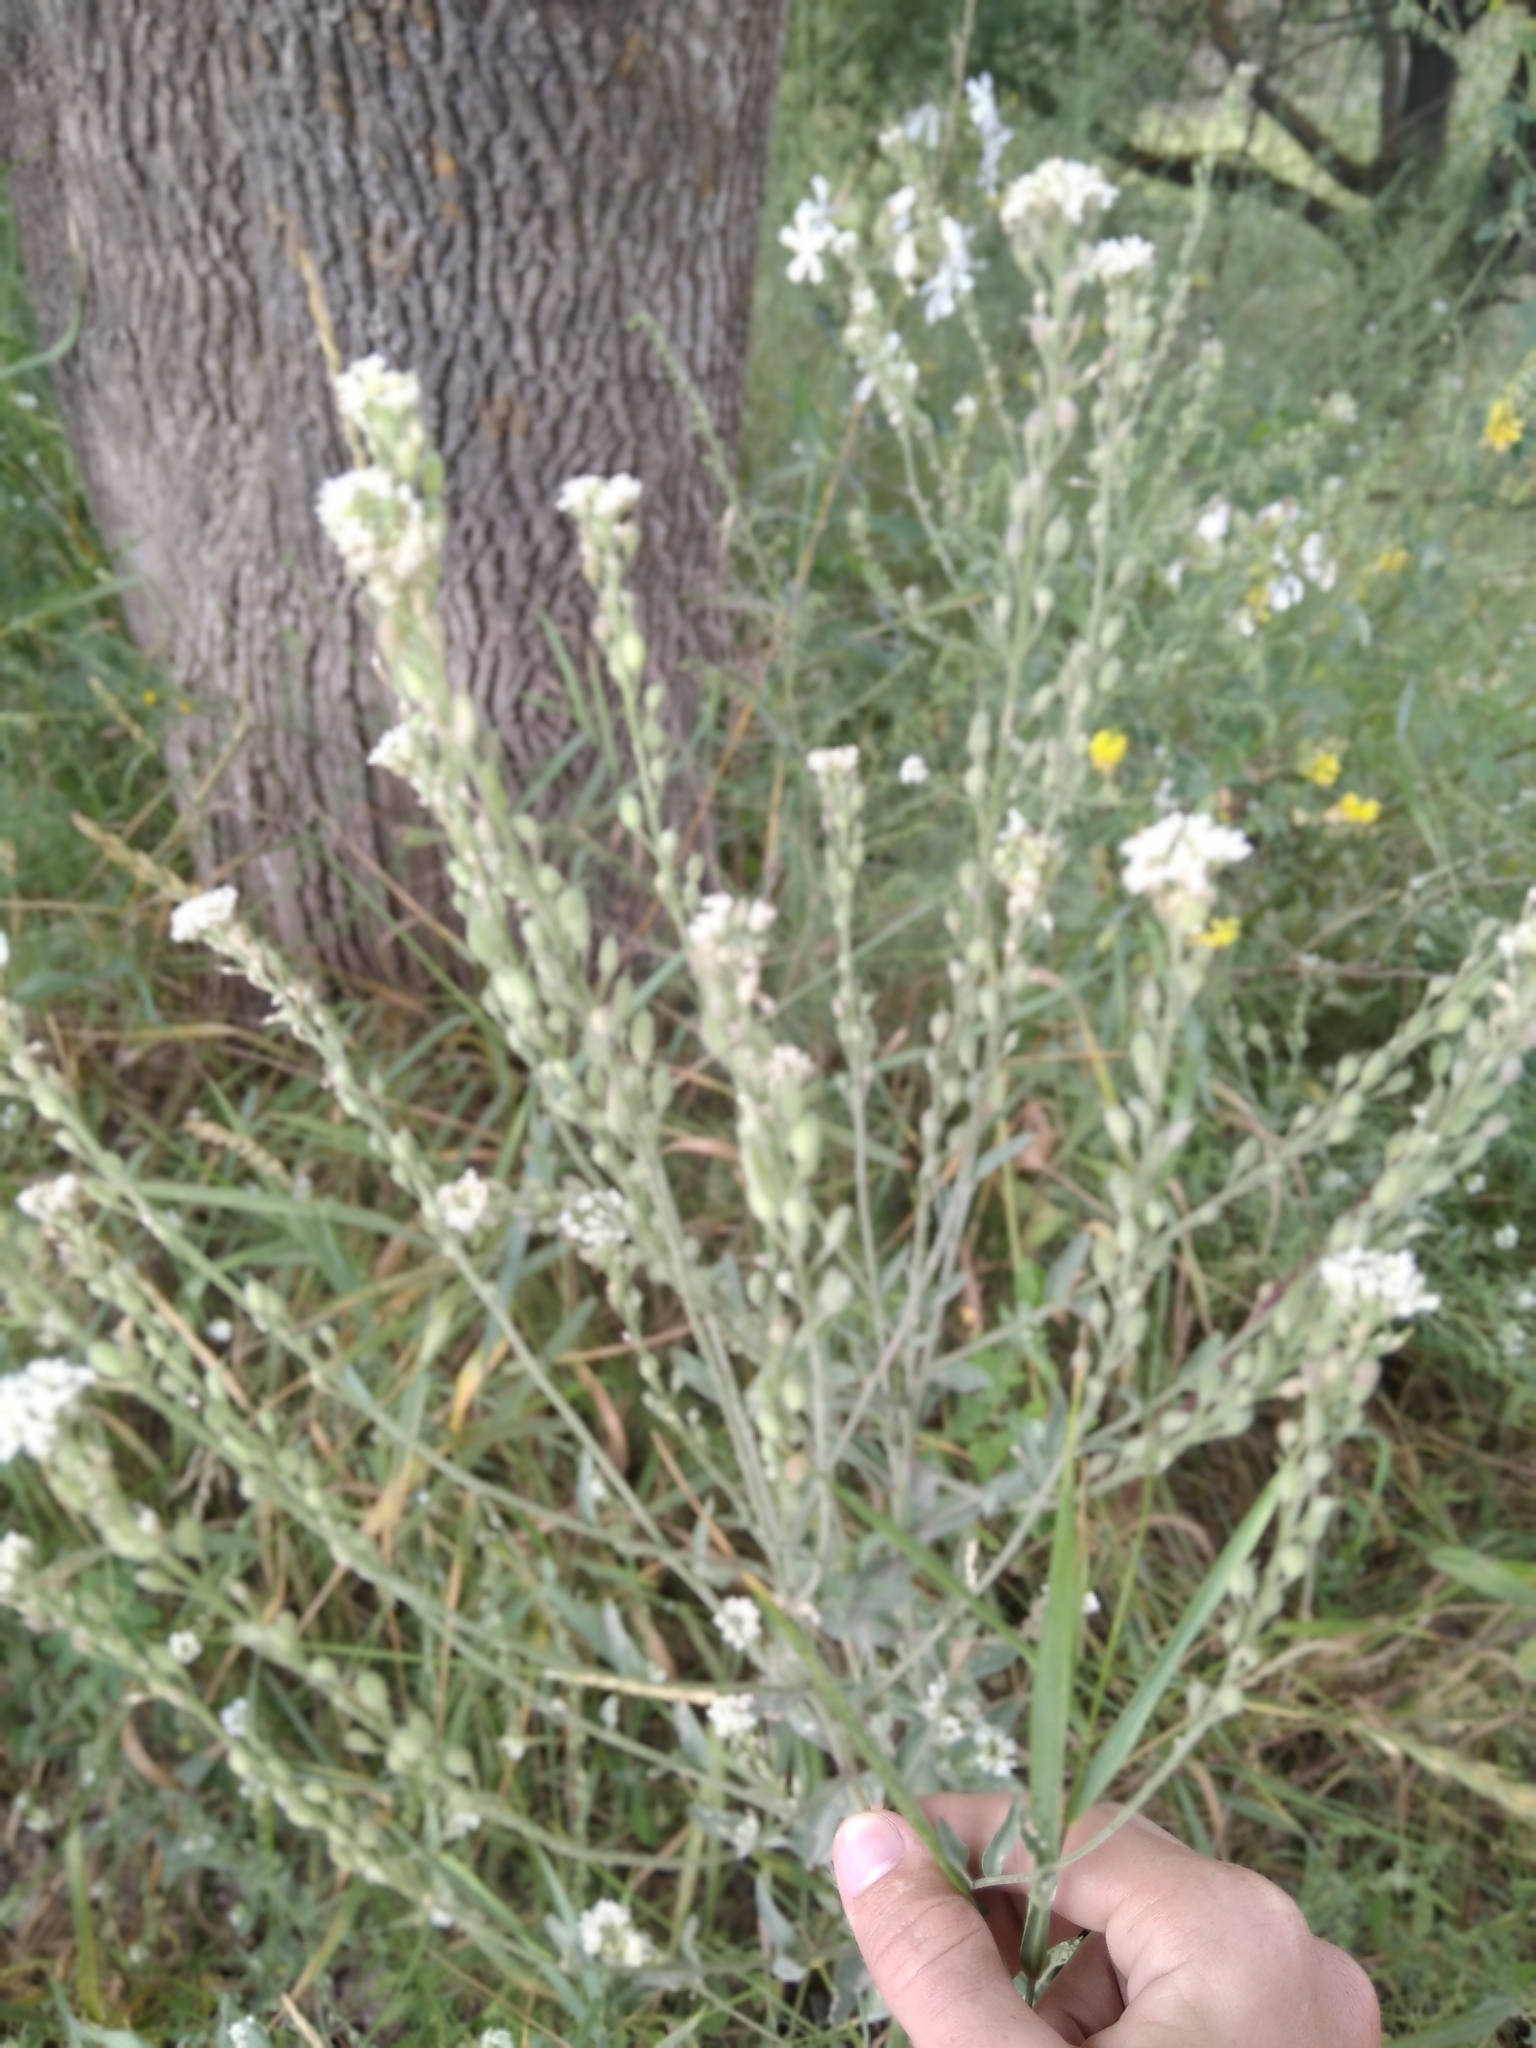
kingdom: Plantae
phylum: Tracheophyta
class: Magnoliopsida
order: Brassicales
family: Brassicaceae
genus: Berteroa
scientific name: Berteroa incana
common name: Hoary alison
